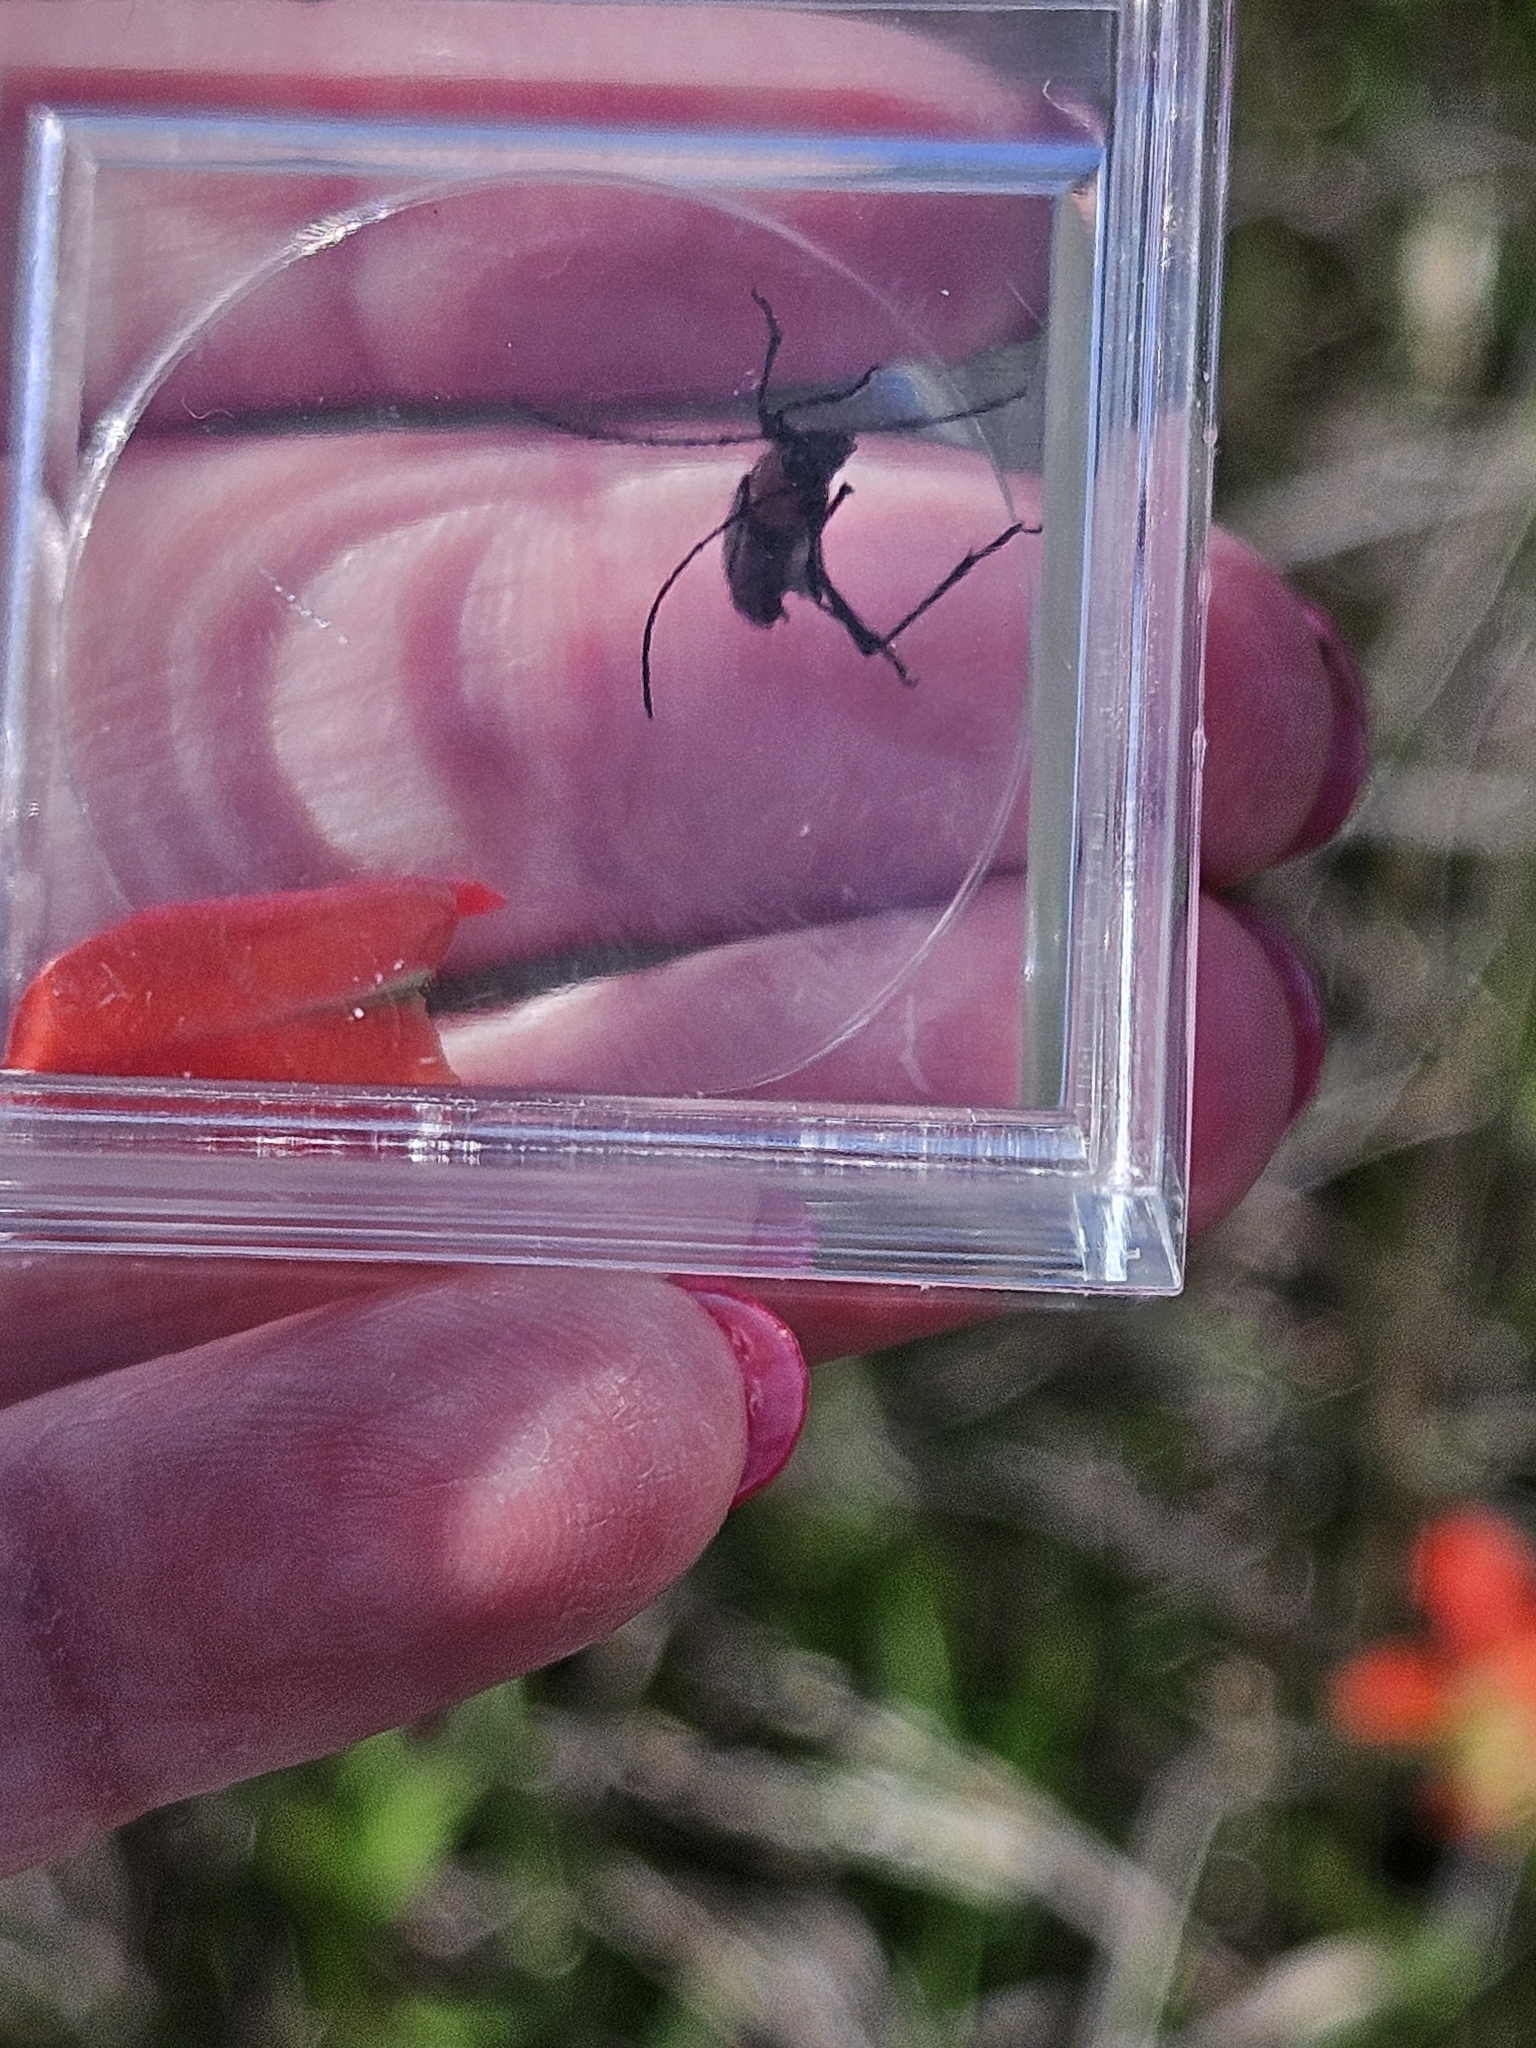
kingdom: Animalia
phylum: Arthropoda
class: Insecta
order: Coleoptera
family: Cerambycidae
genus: Batyle
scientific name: Batyle ignicollis
